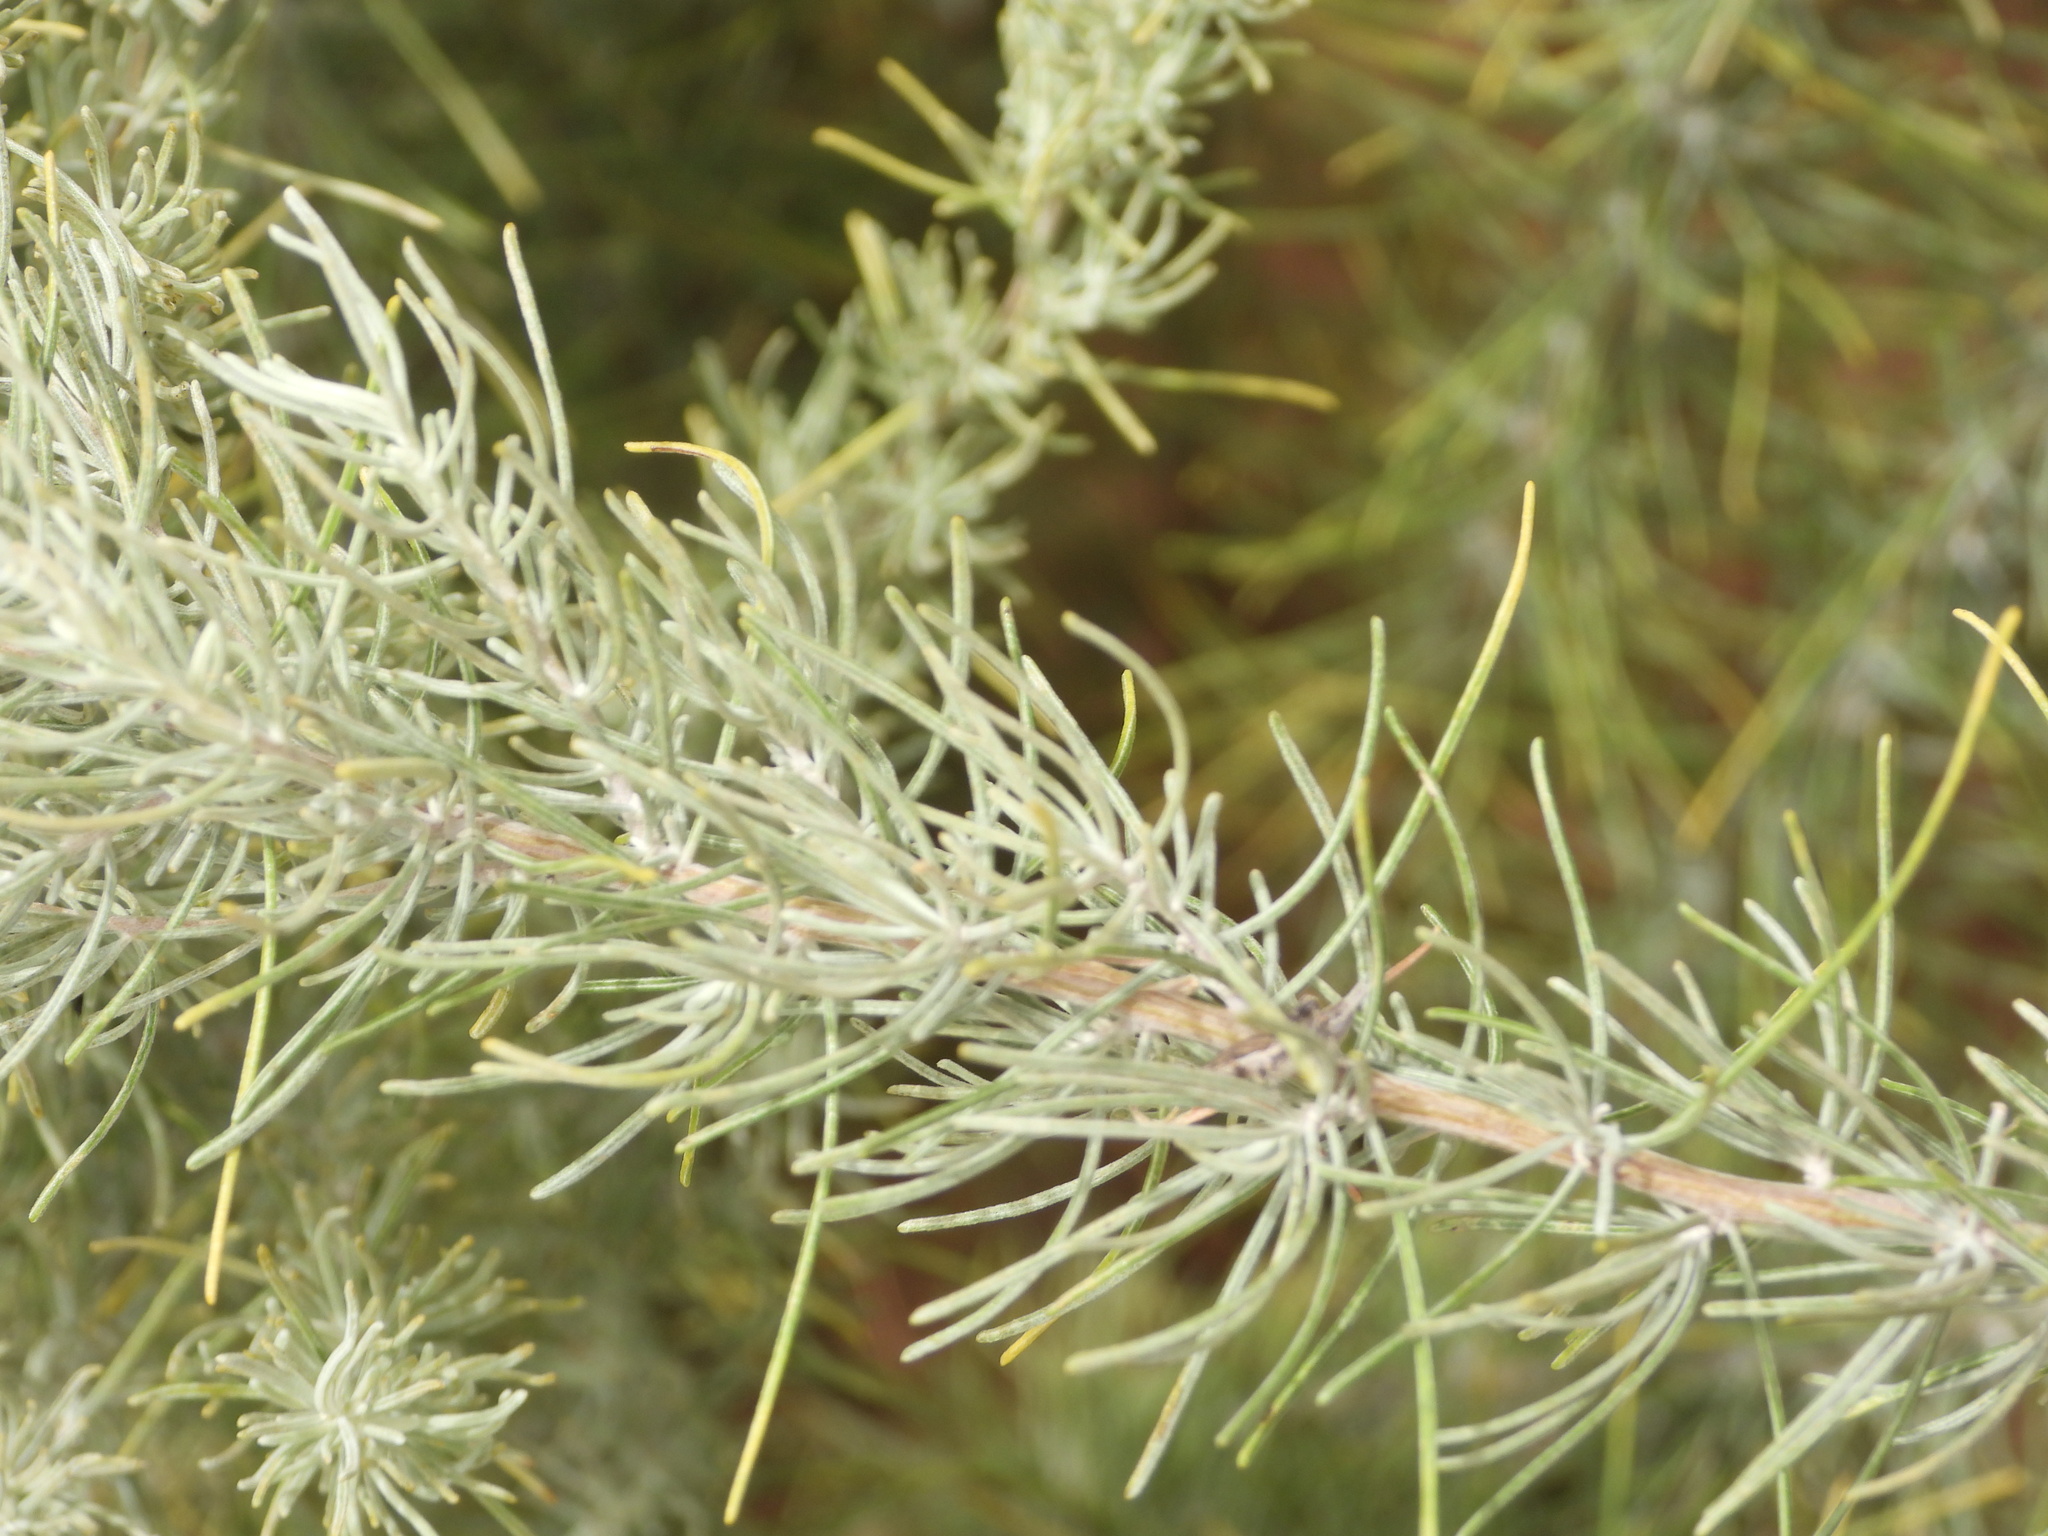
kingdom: Plantae
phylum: Tracheophyta
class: Magnoliopsida
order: Asterales
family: Asteraceae
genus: Artemisia
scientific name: Artemisia filifolia
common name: Sand-sage
